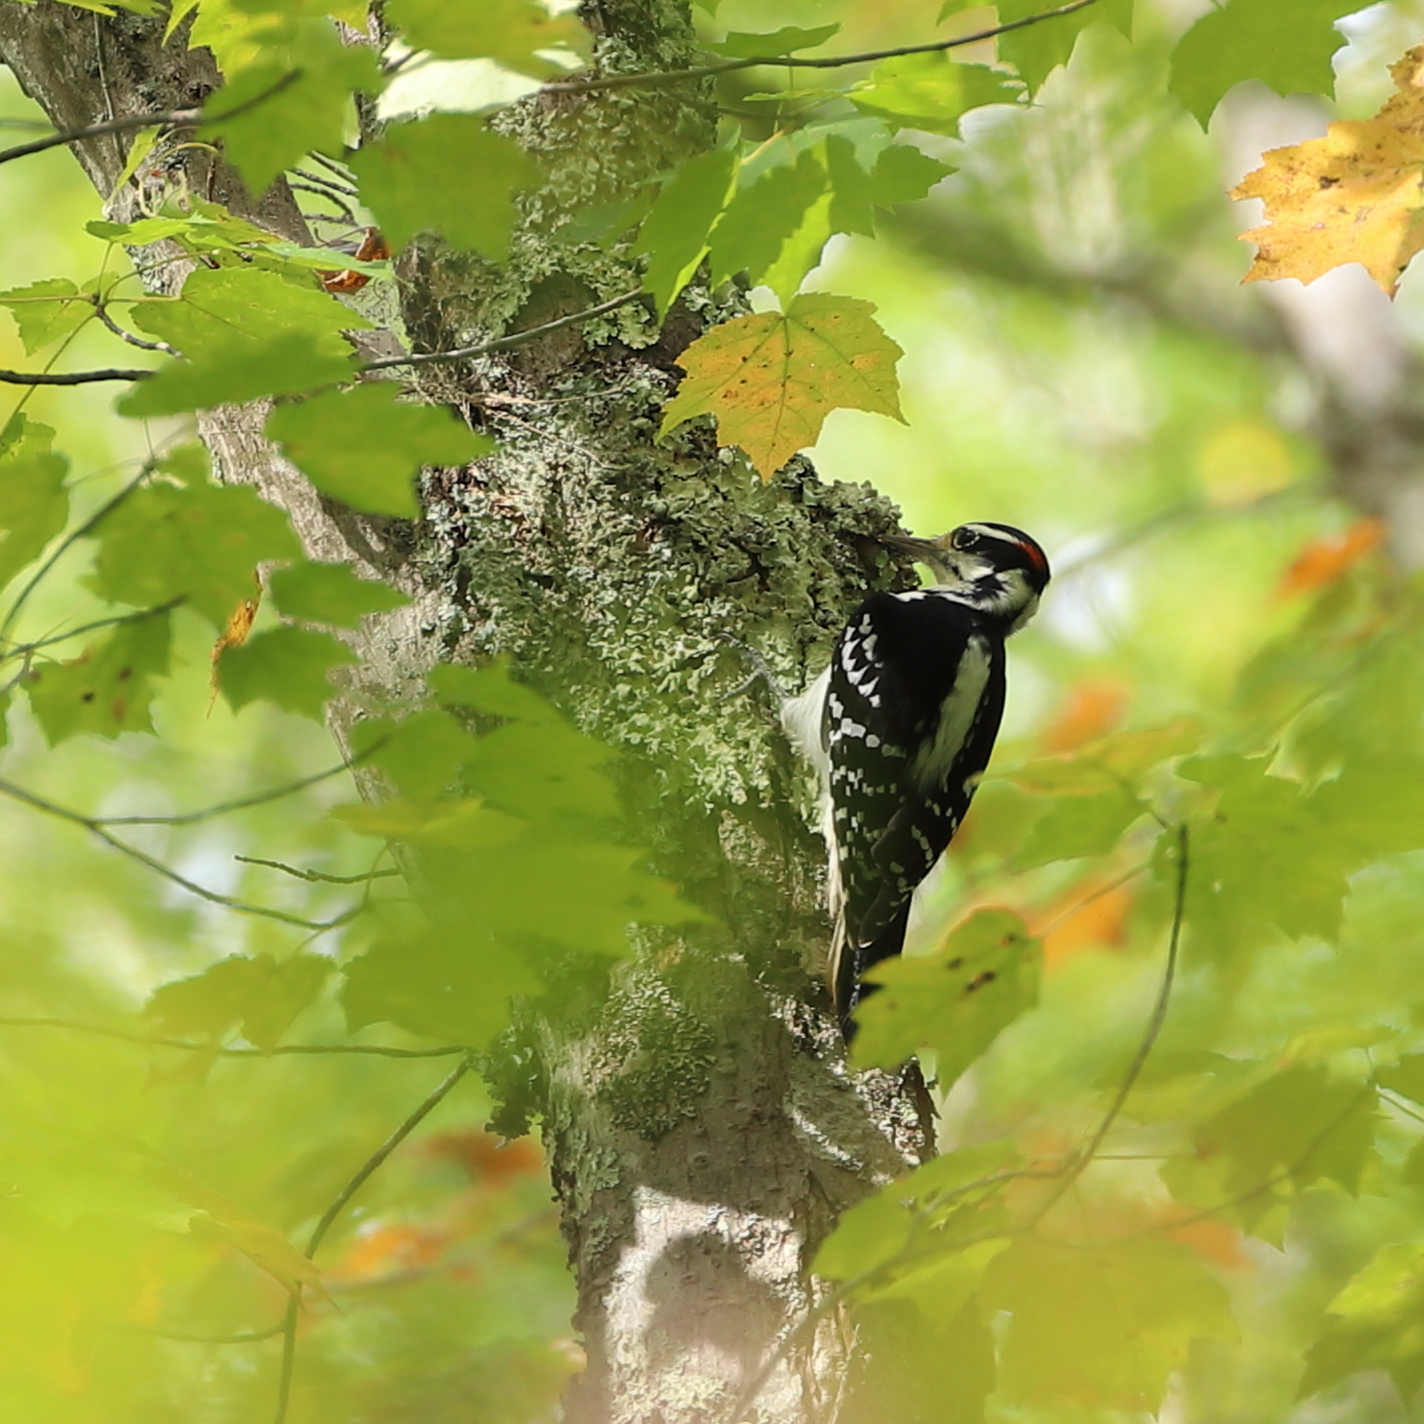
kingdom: Animalia
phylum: Chordata
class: Aves
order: Piciformes
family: Picidae
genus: Leuconotopicus
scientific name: Leuconotopicus villosus
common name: Hairy woodpecker
